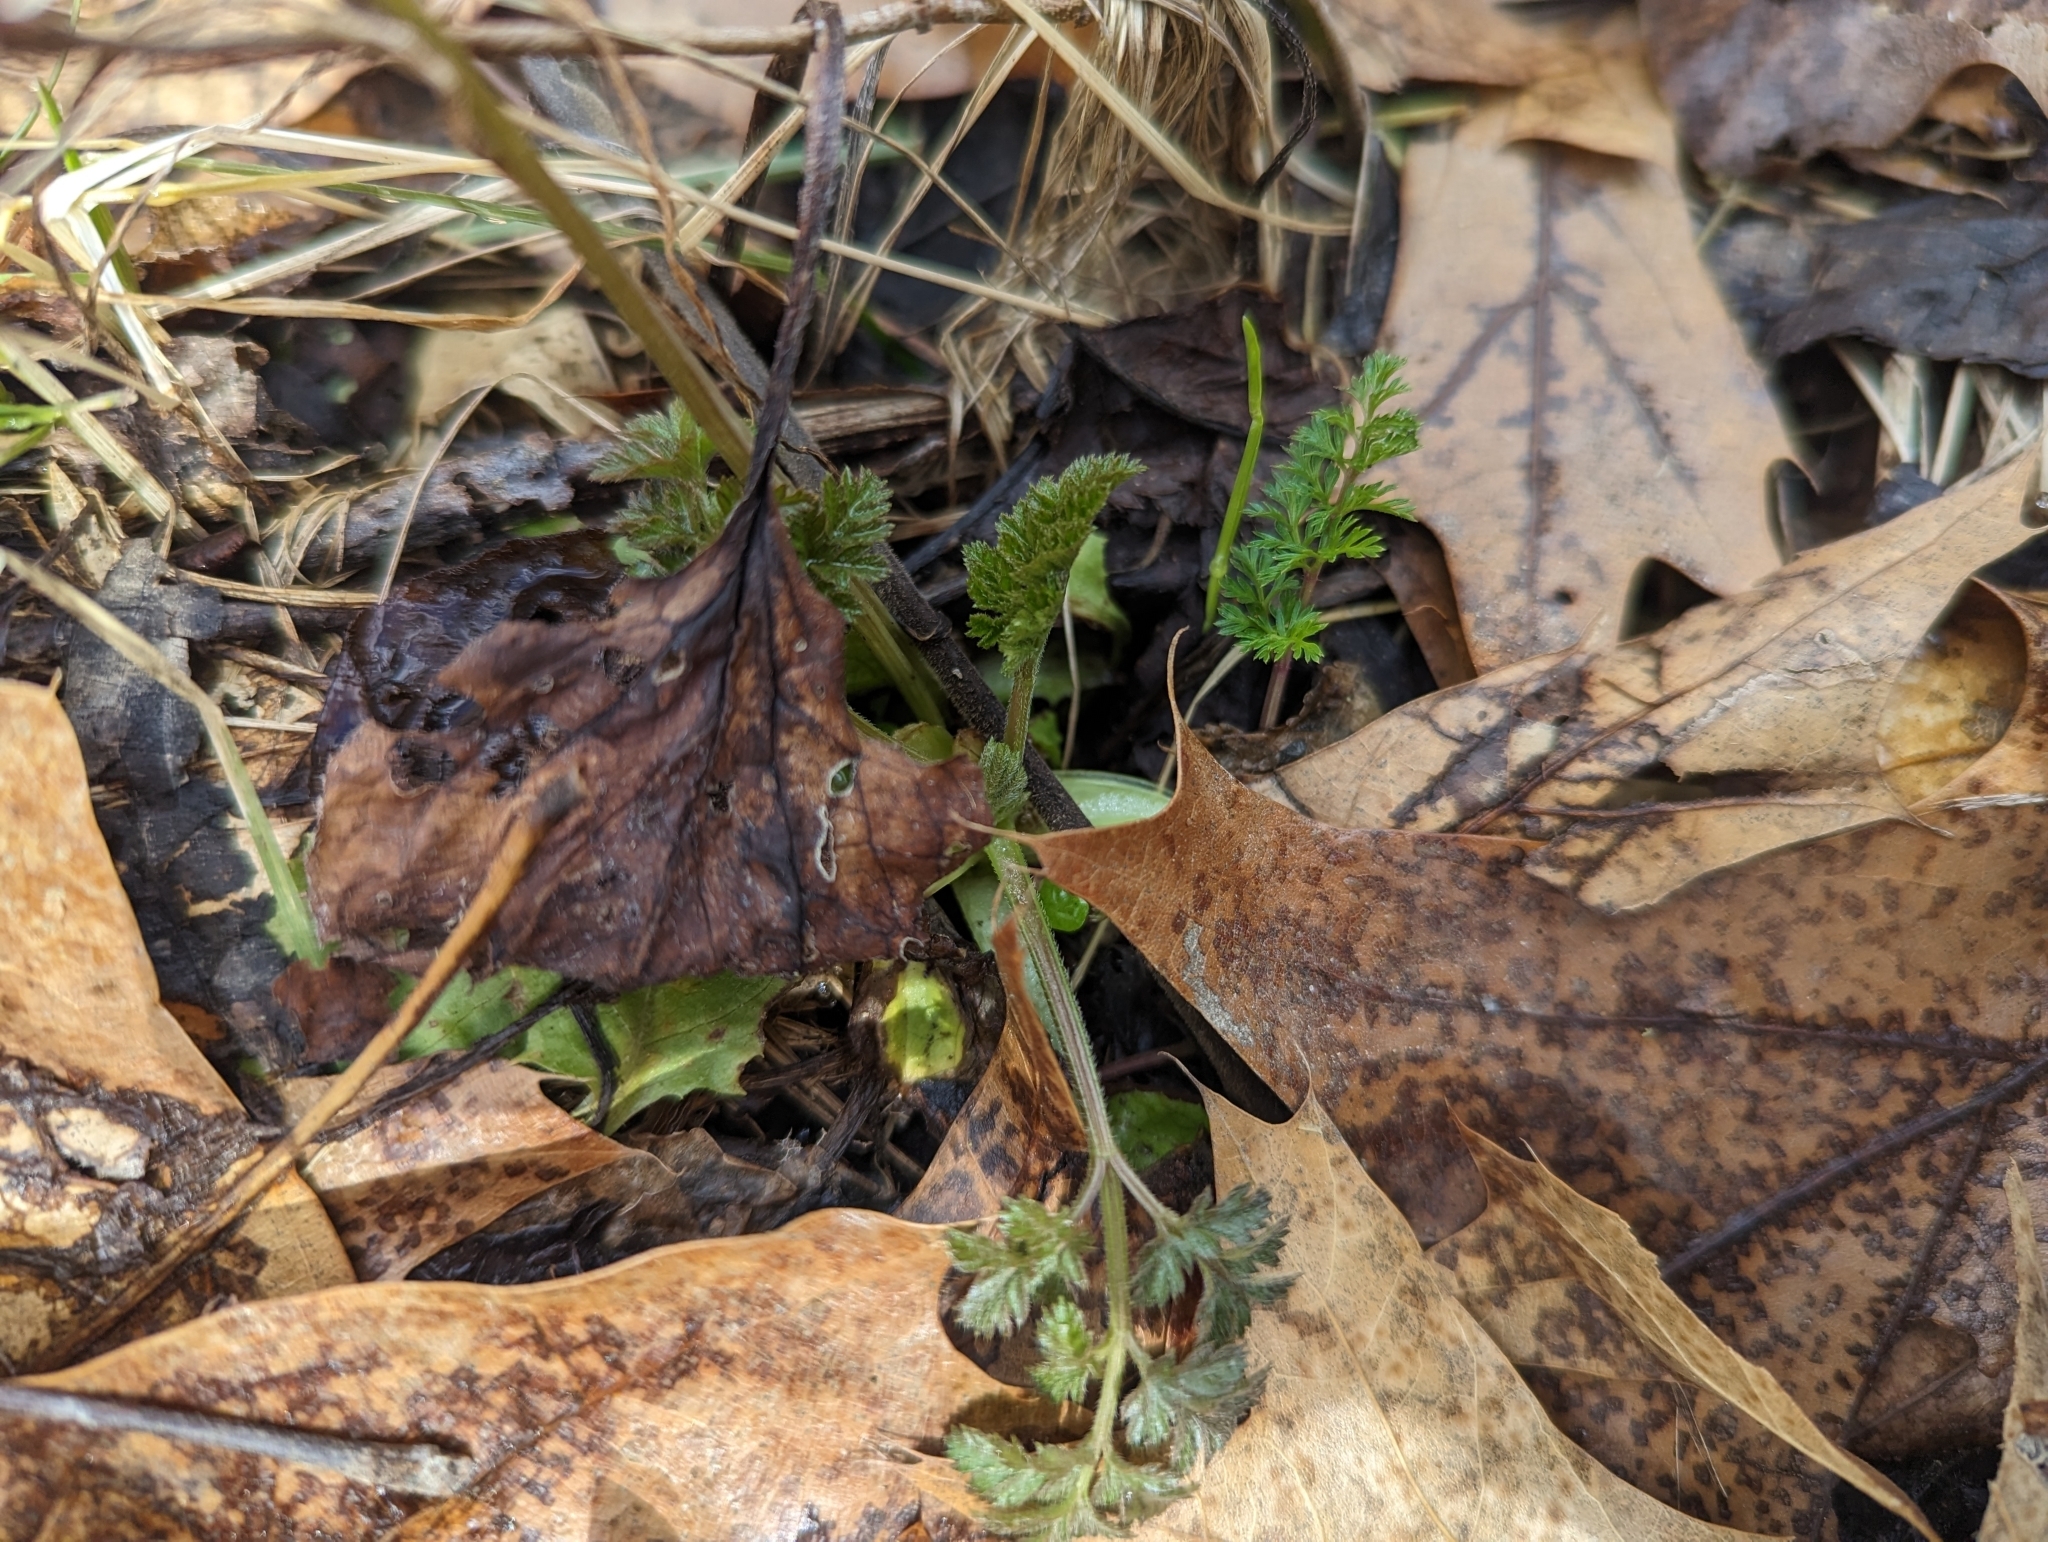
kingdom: Plantae
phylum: Tracheophyta
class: Magnoliopsida
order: Apiales
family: Apiaceae
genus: Daucus
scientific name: Daucus carota
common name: Wild carrot
